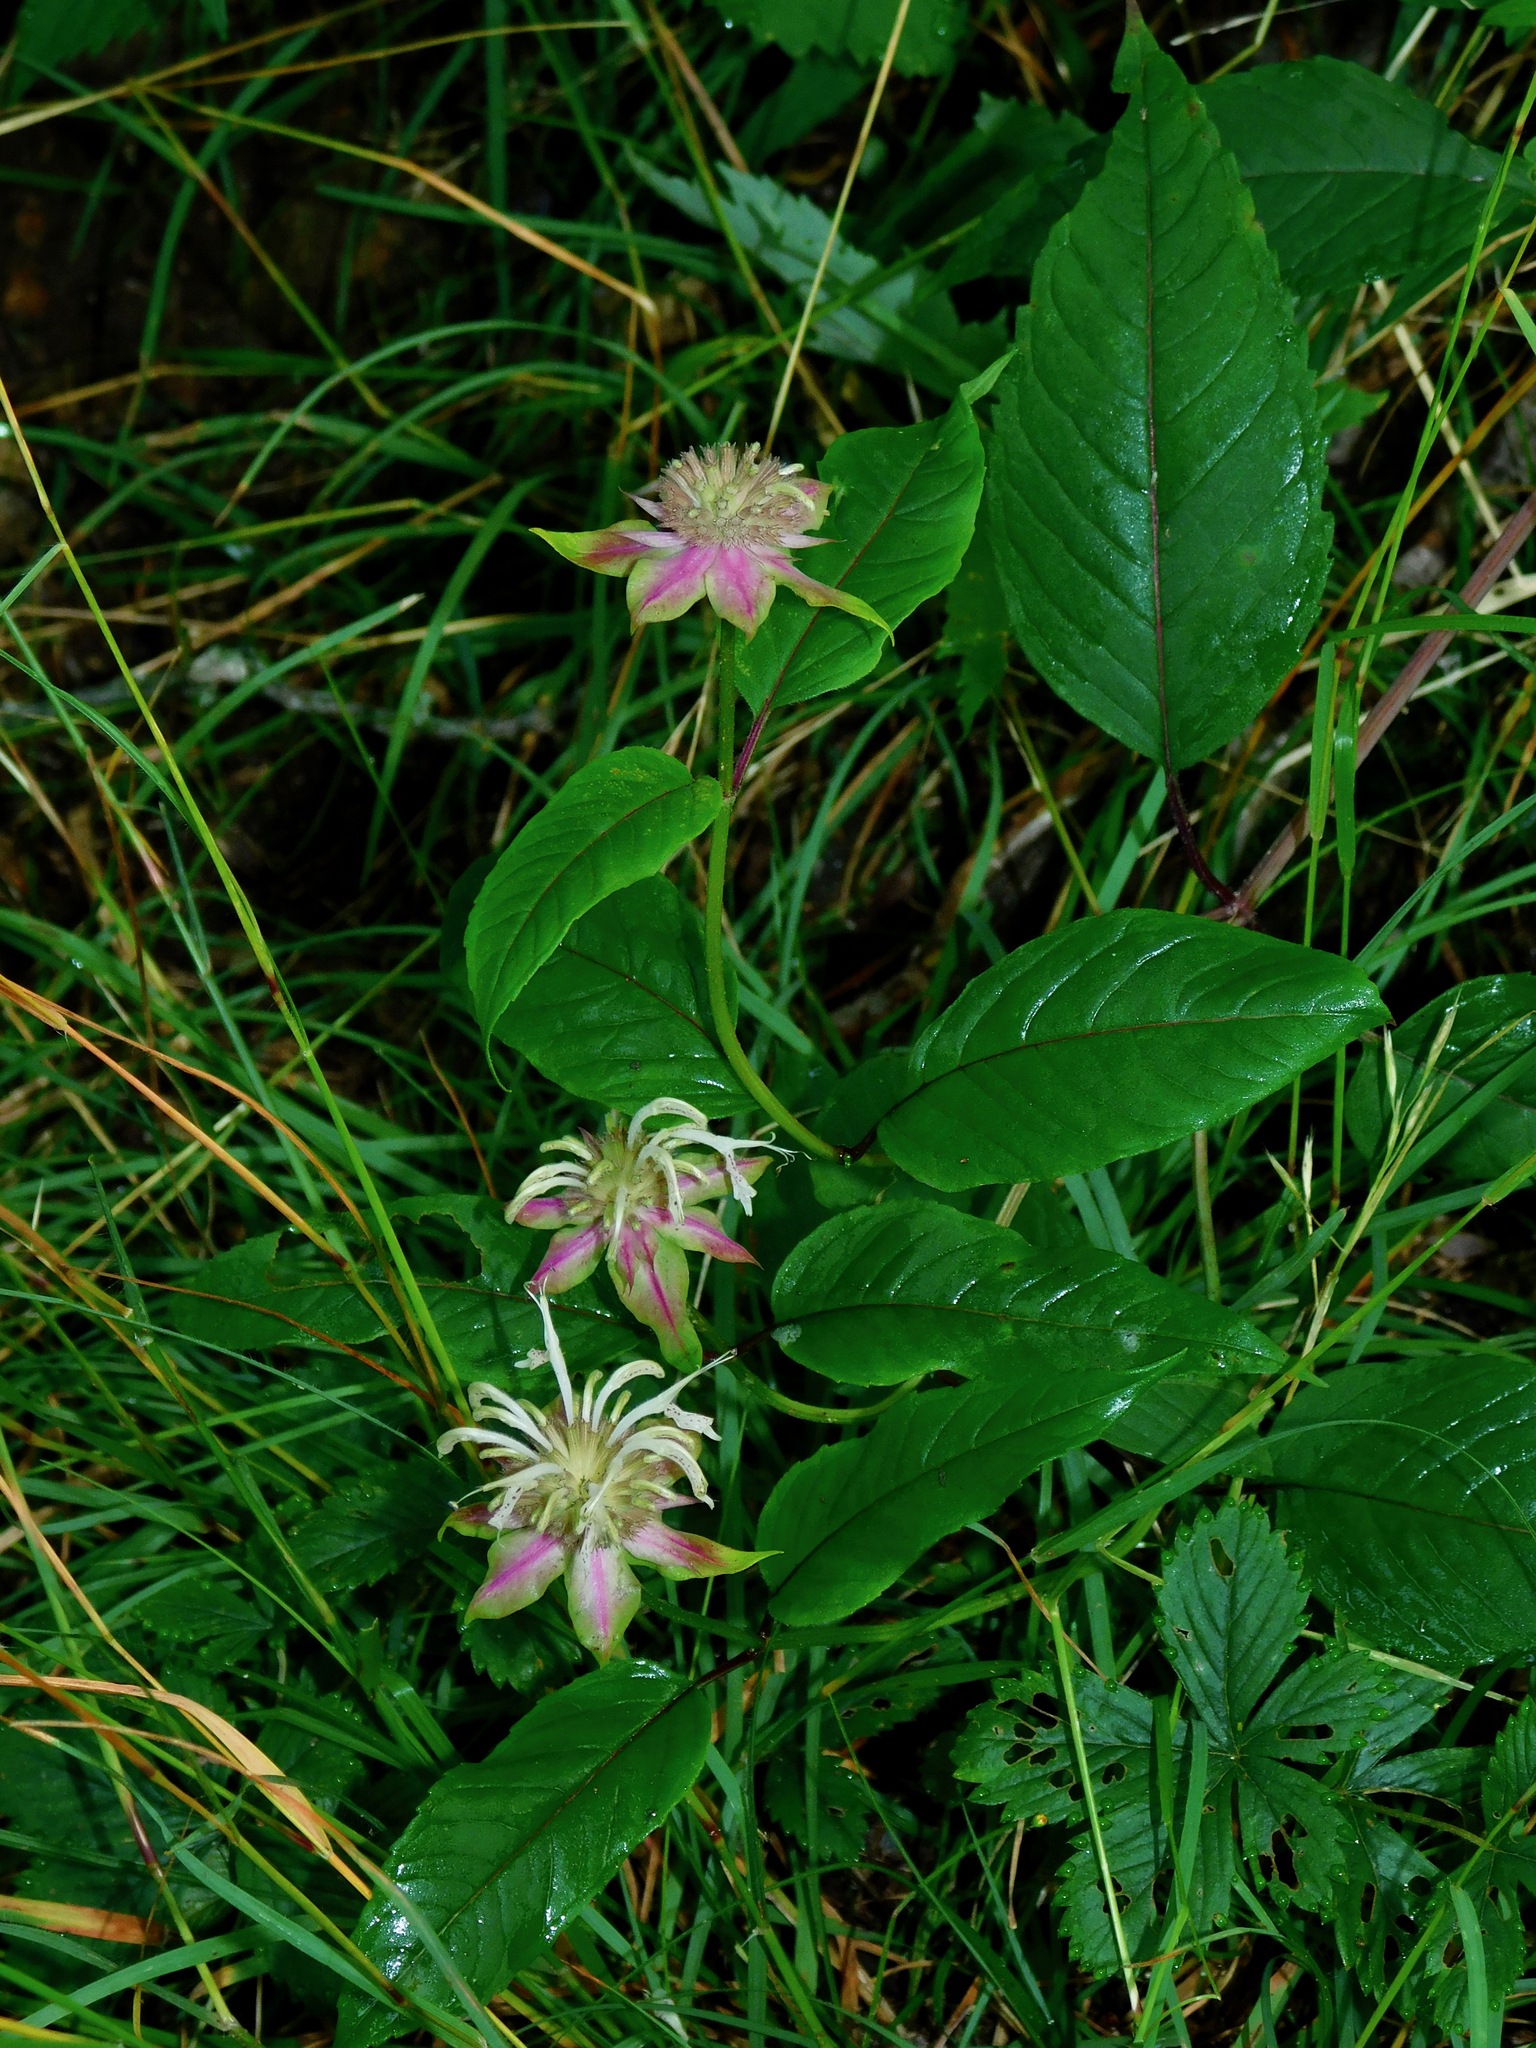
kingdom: Plantae
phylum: Tracheophyta
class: Magnoliopsida
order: Lamiales
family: Lamiaceae
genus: Monarda
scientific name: Monarda clinopodia
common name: Basil beebalm
